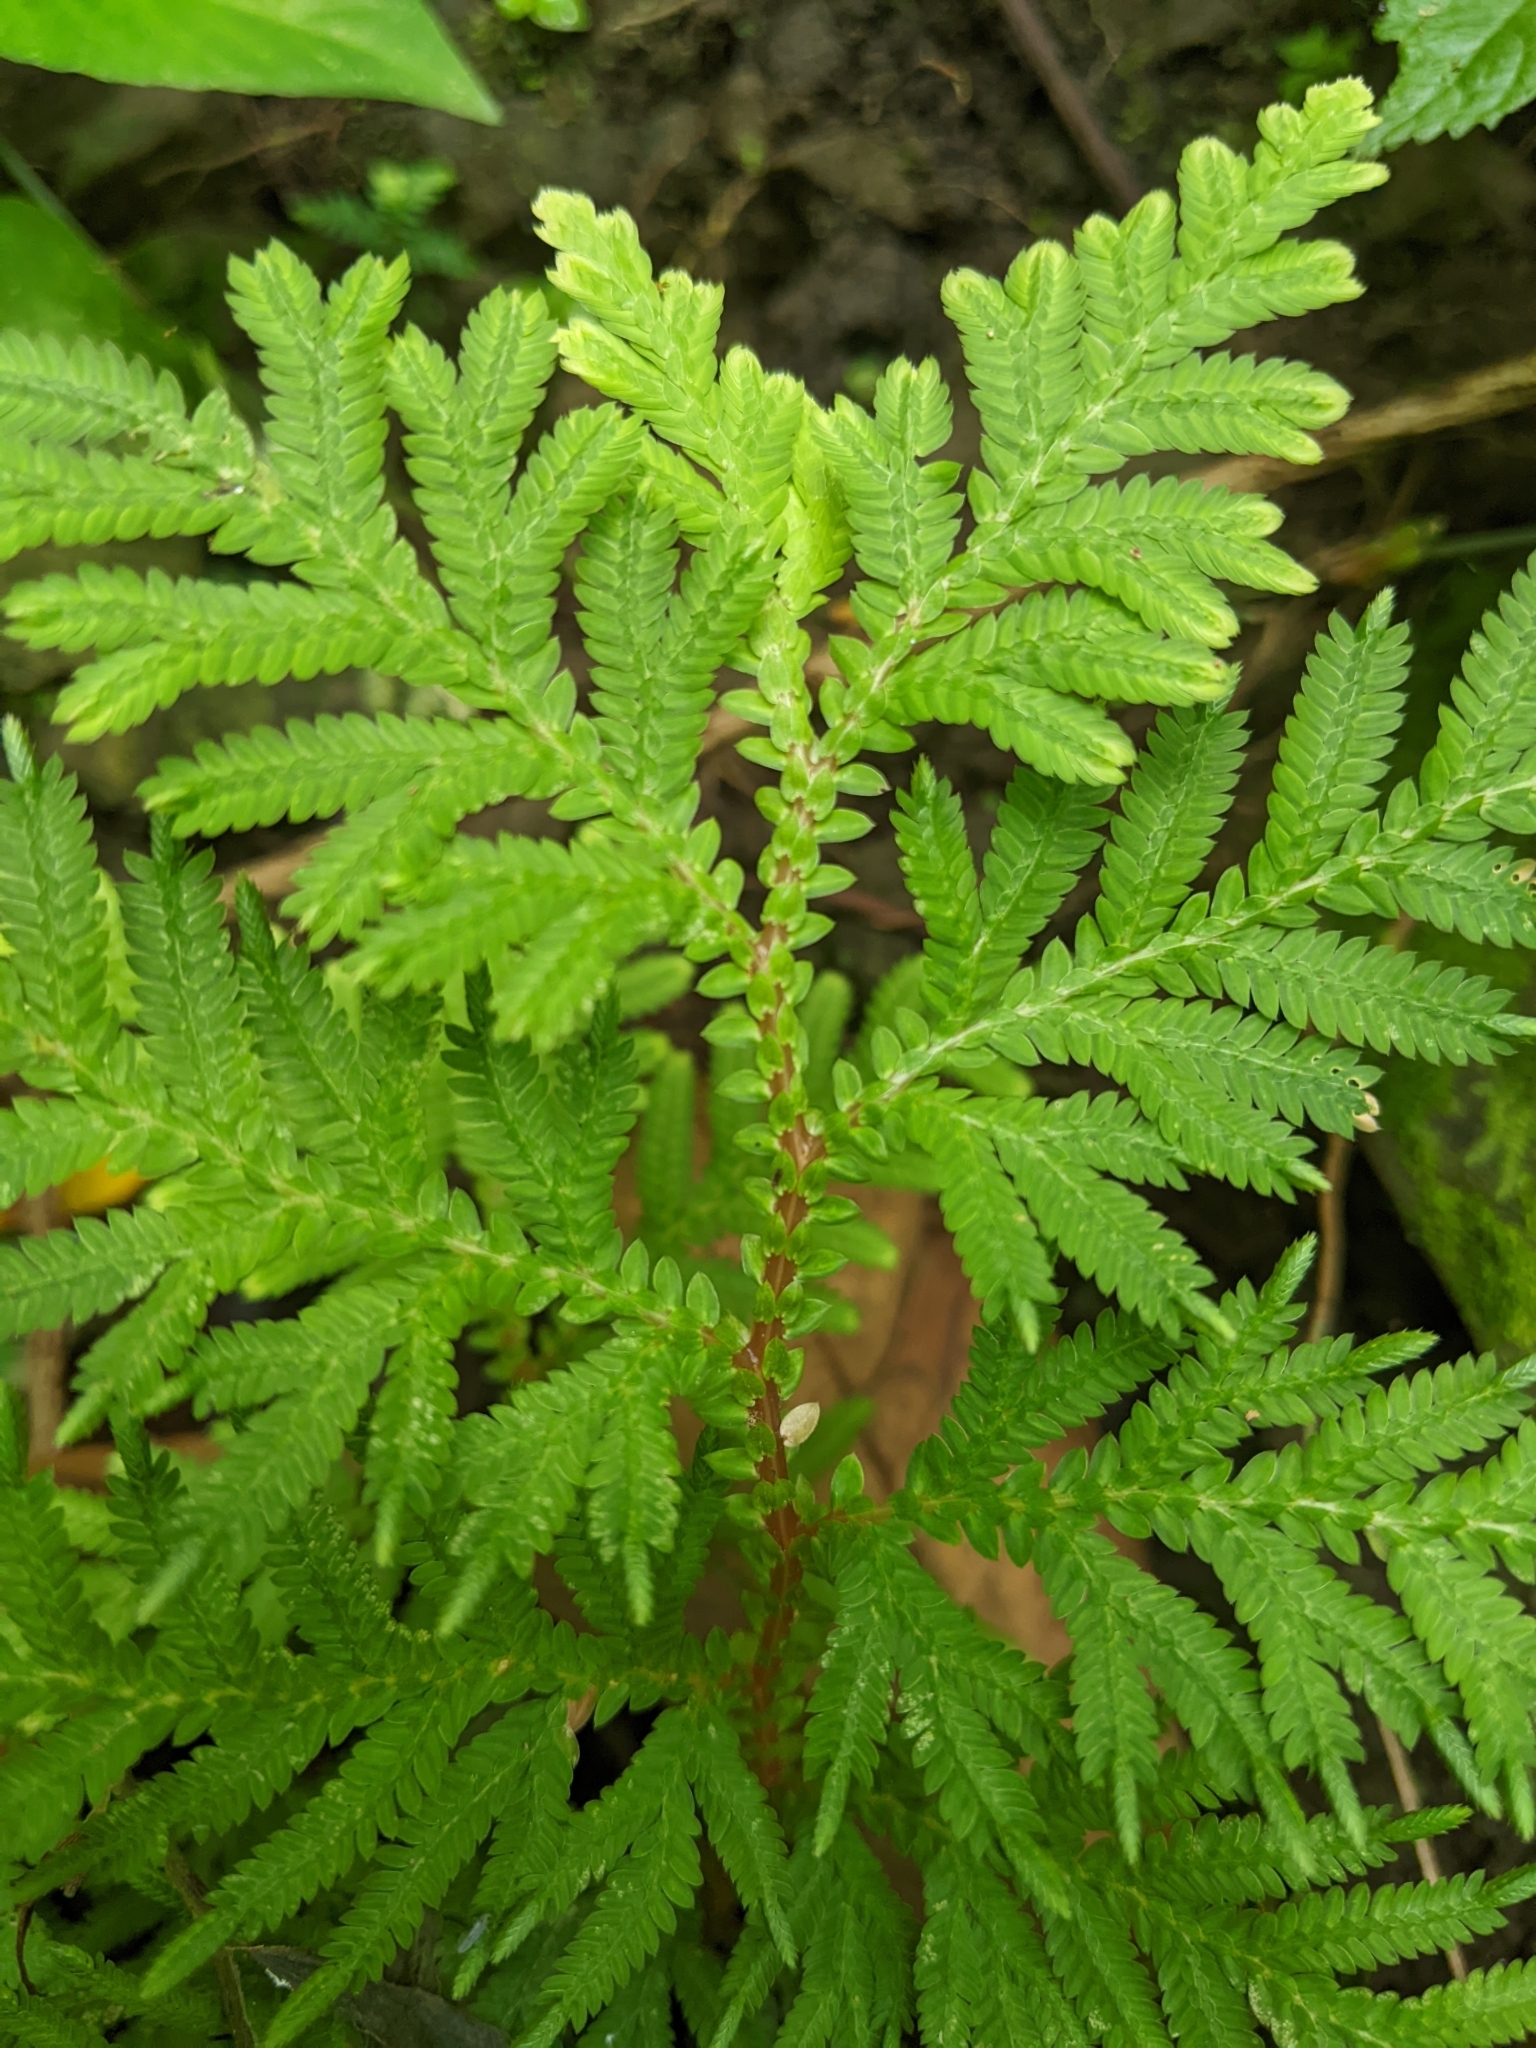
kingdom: Plantae
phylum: Tracheophyta
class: Lycopodiopsida
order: Selaginellales
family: Selaginellaceae
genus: Selaginella
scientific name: Selaginella delicatula
